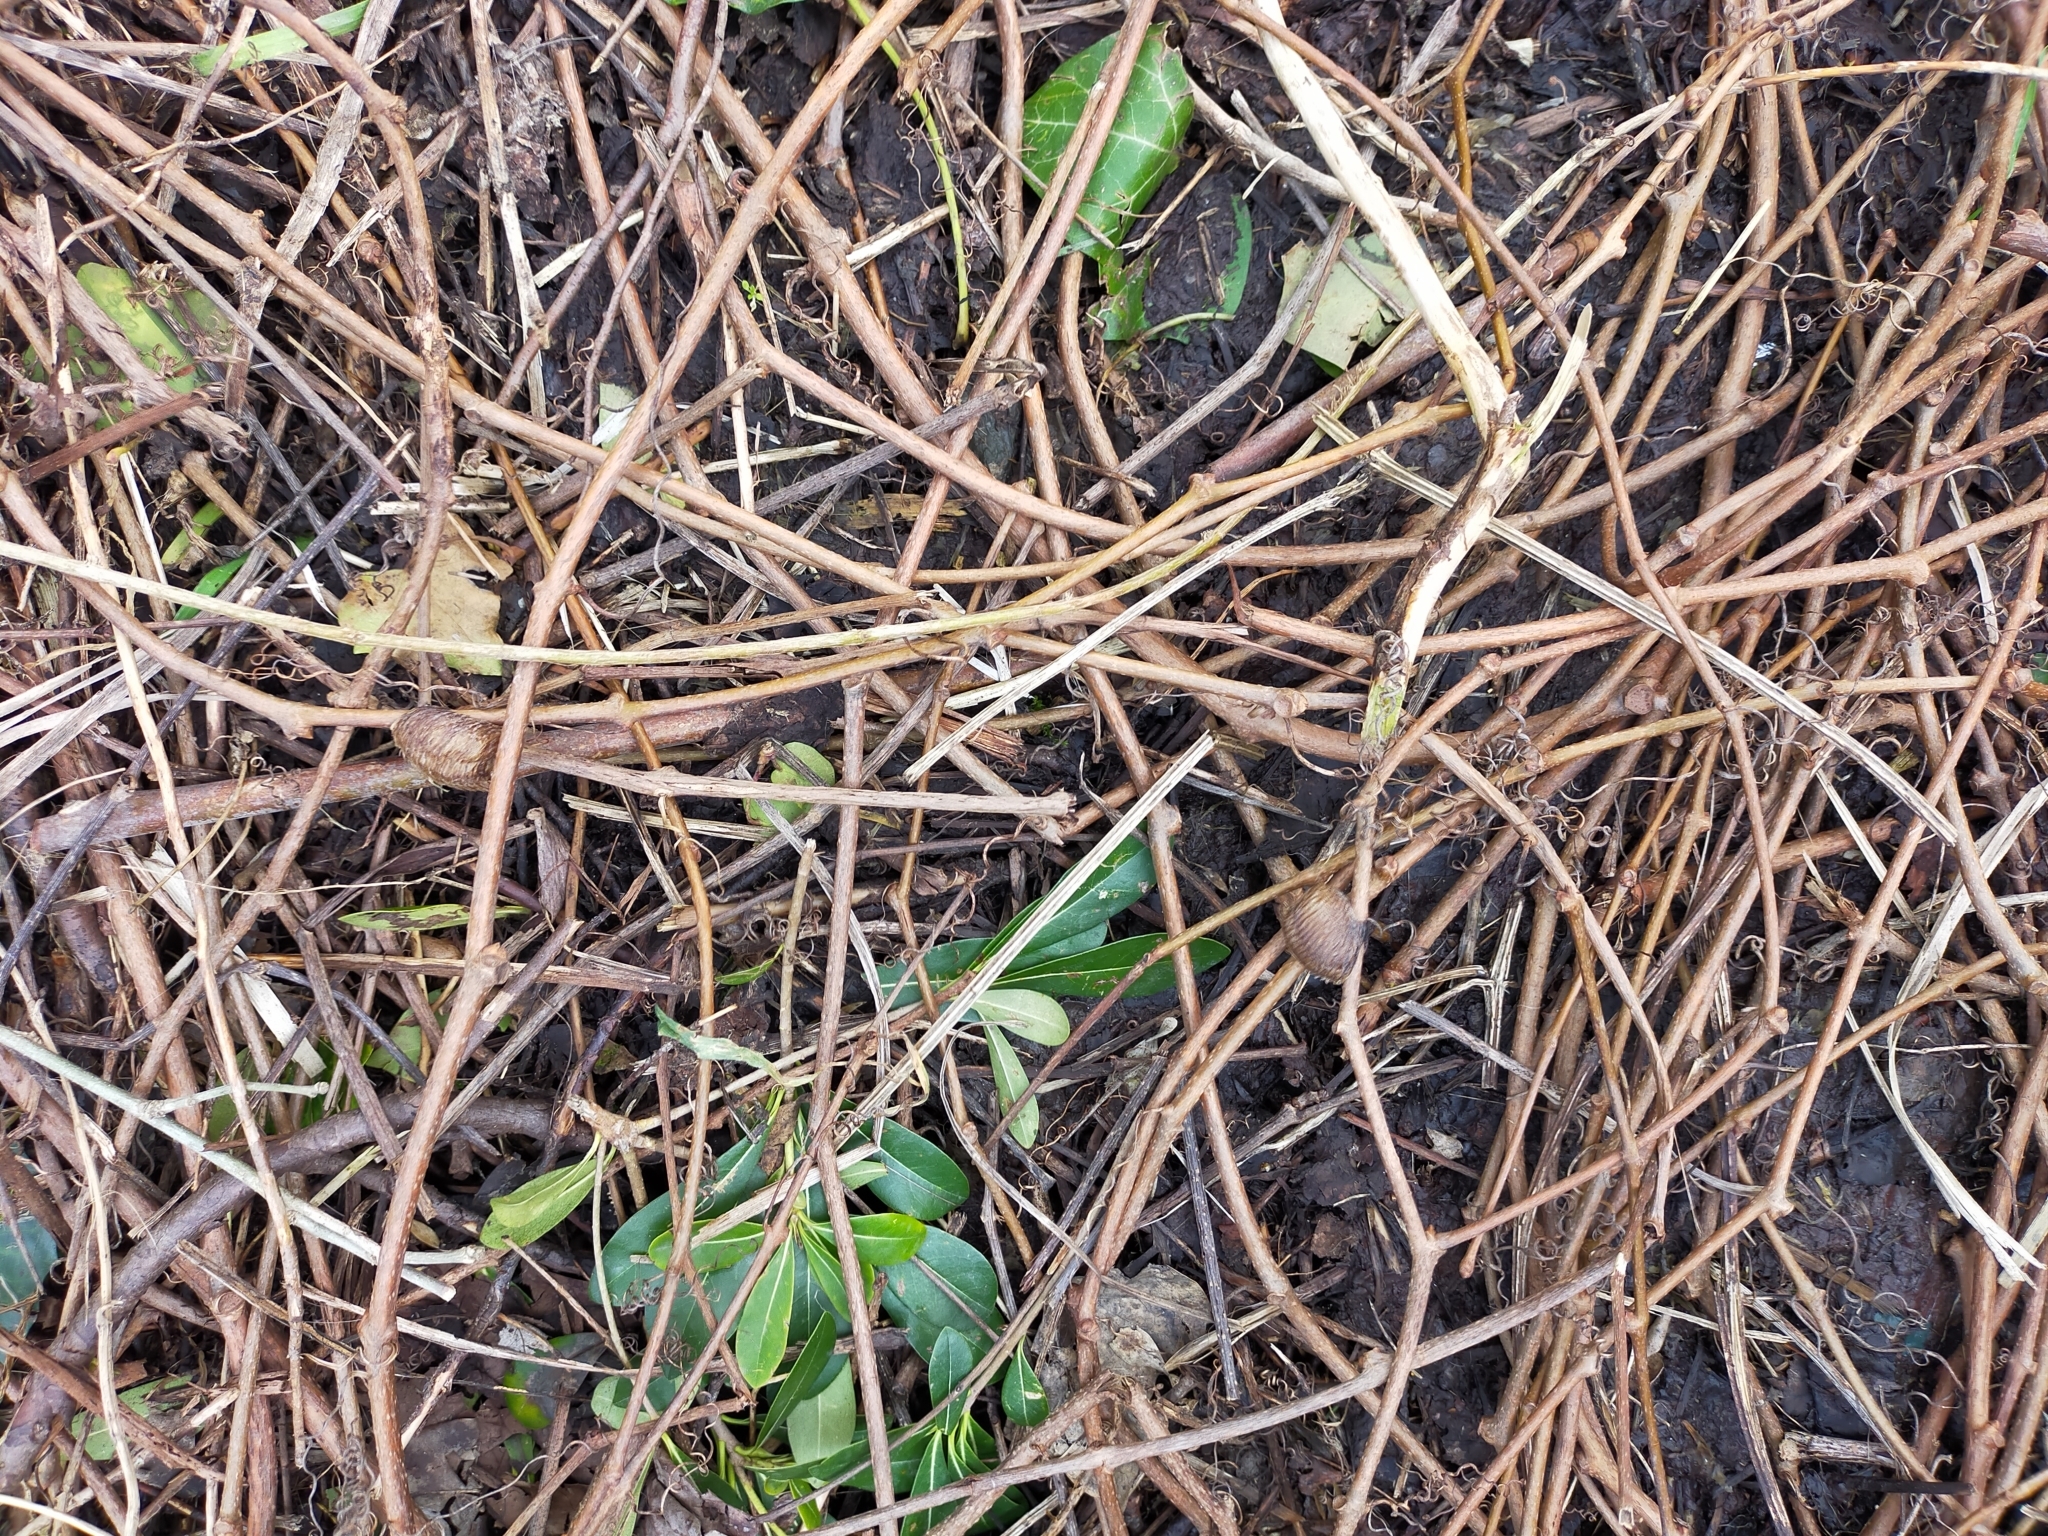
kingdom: Animalia
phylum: Arthropoda
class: Insecta
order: Mantodea
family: Mantidae
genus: Hierodula
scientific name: Hierodula transcaucasica
